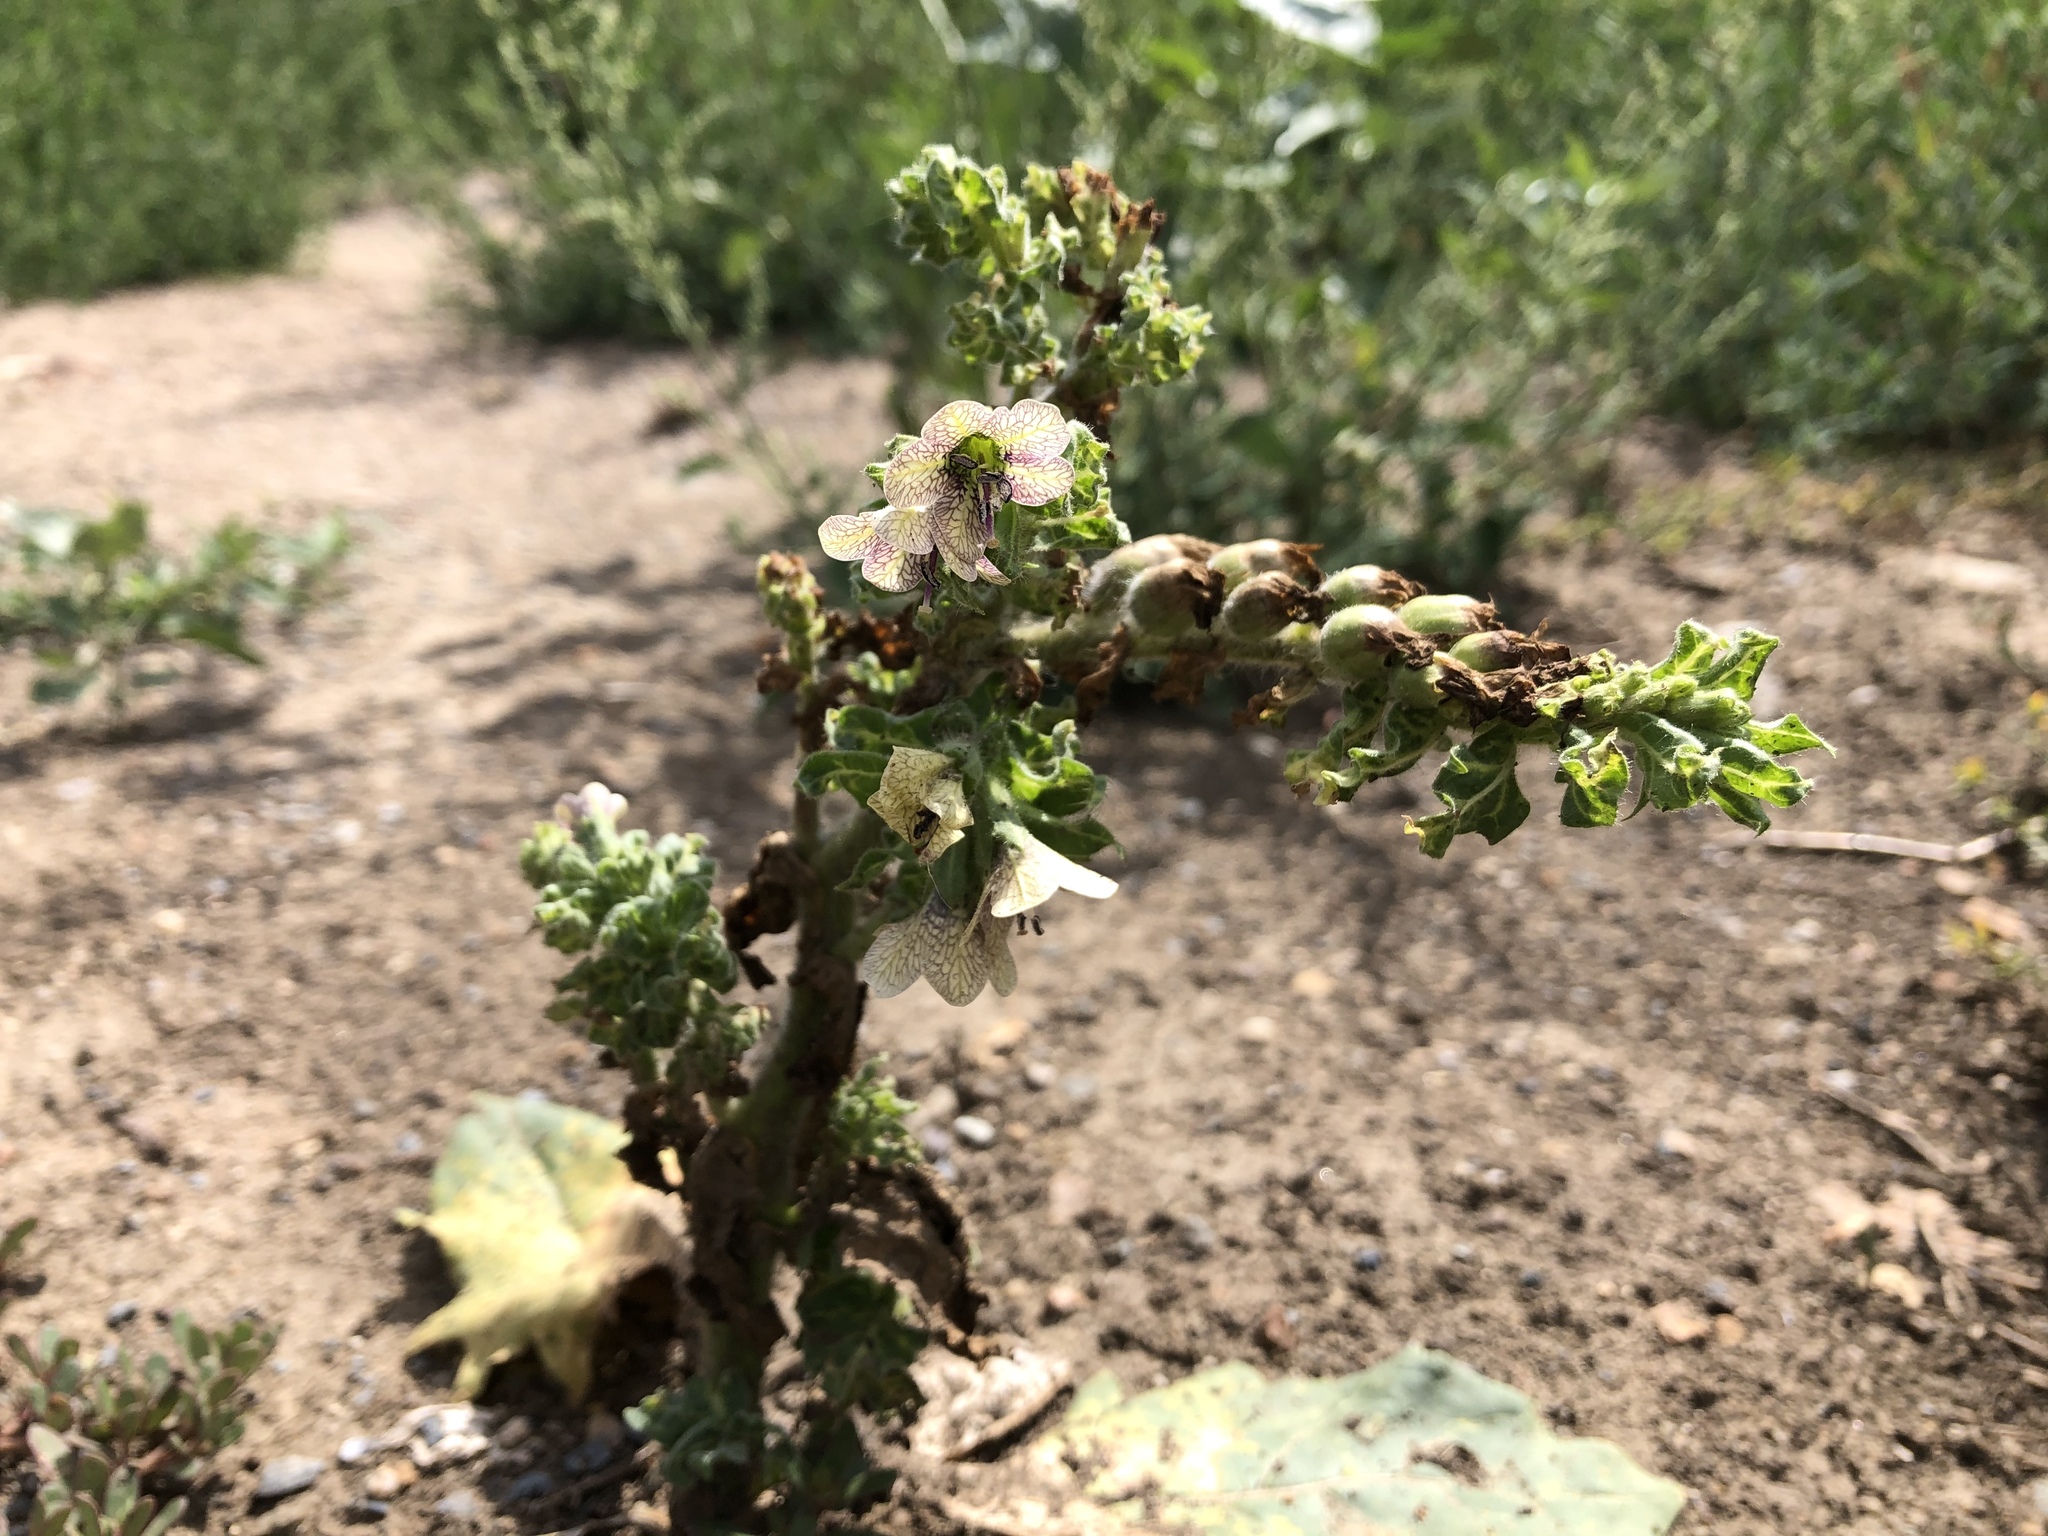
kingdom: Plantae
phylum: Tracheophyta
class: Magnoliopsida
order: Solanales
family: Solanaceae
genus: Hyoscyamus
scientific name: Hyoscyamus niger
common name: Henbane
